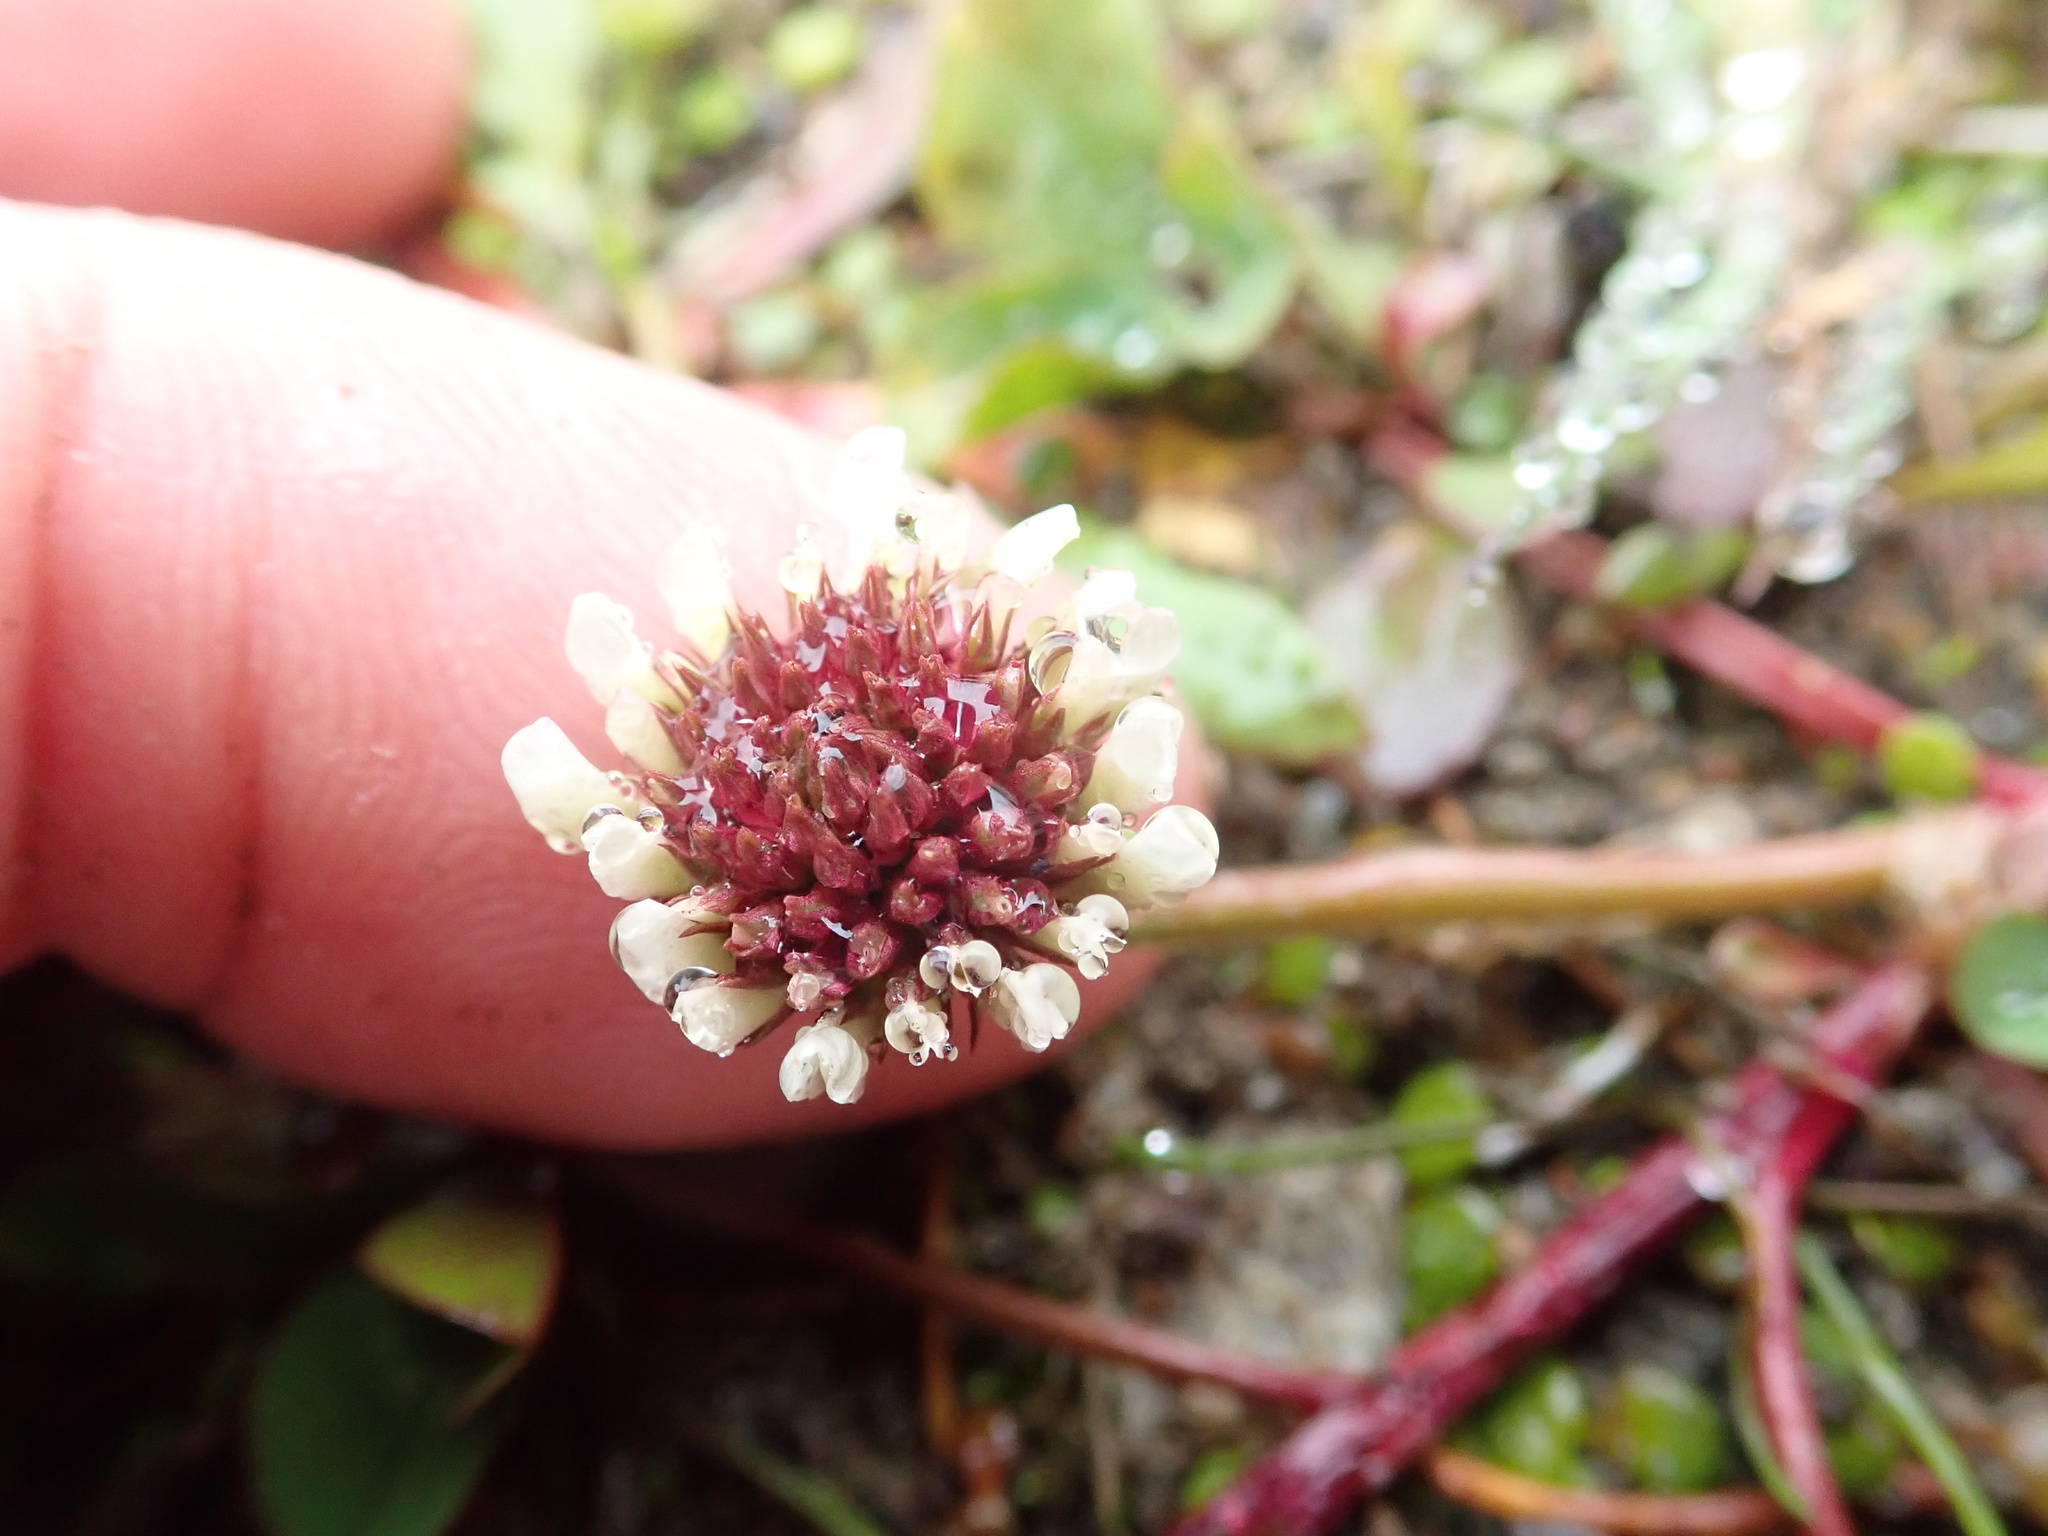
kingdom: Plantae
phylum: Tracheophyta
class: Magnoliopsida
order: Fabales
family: Fabaceae
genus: Trifolium
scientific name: Trifolium repens
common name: White clover
